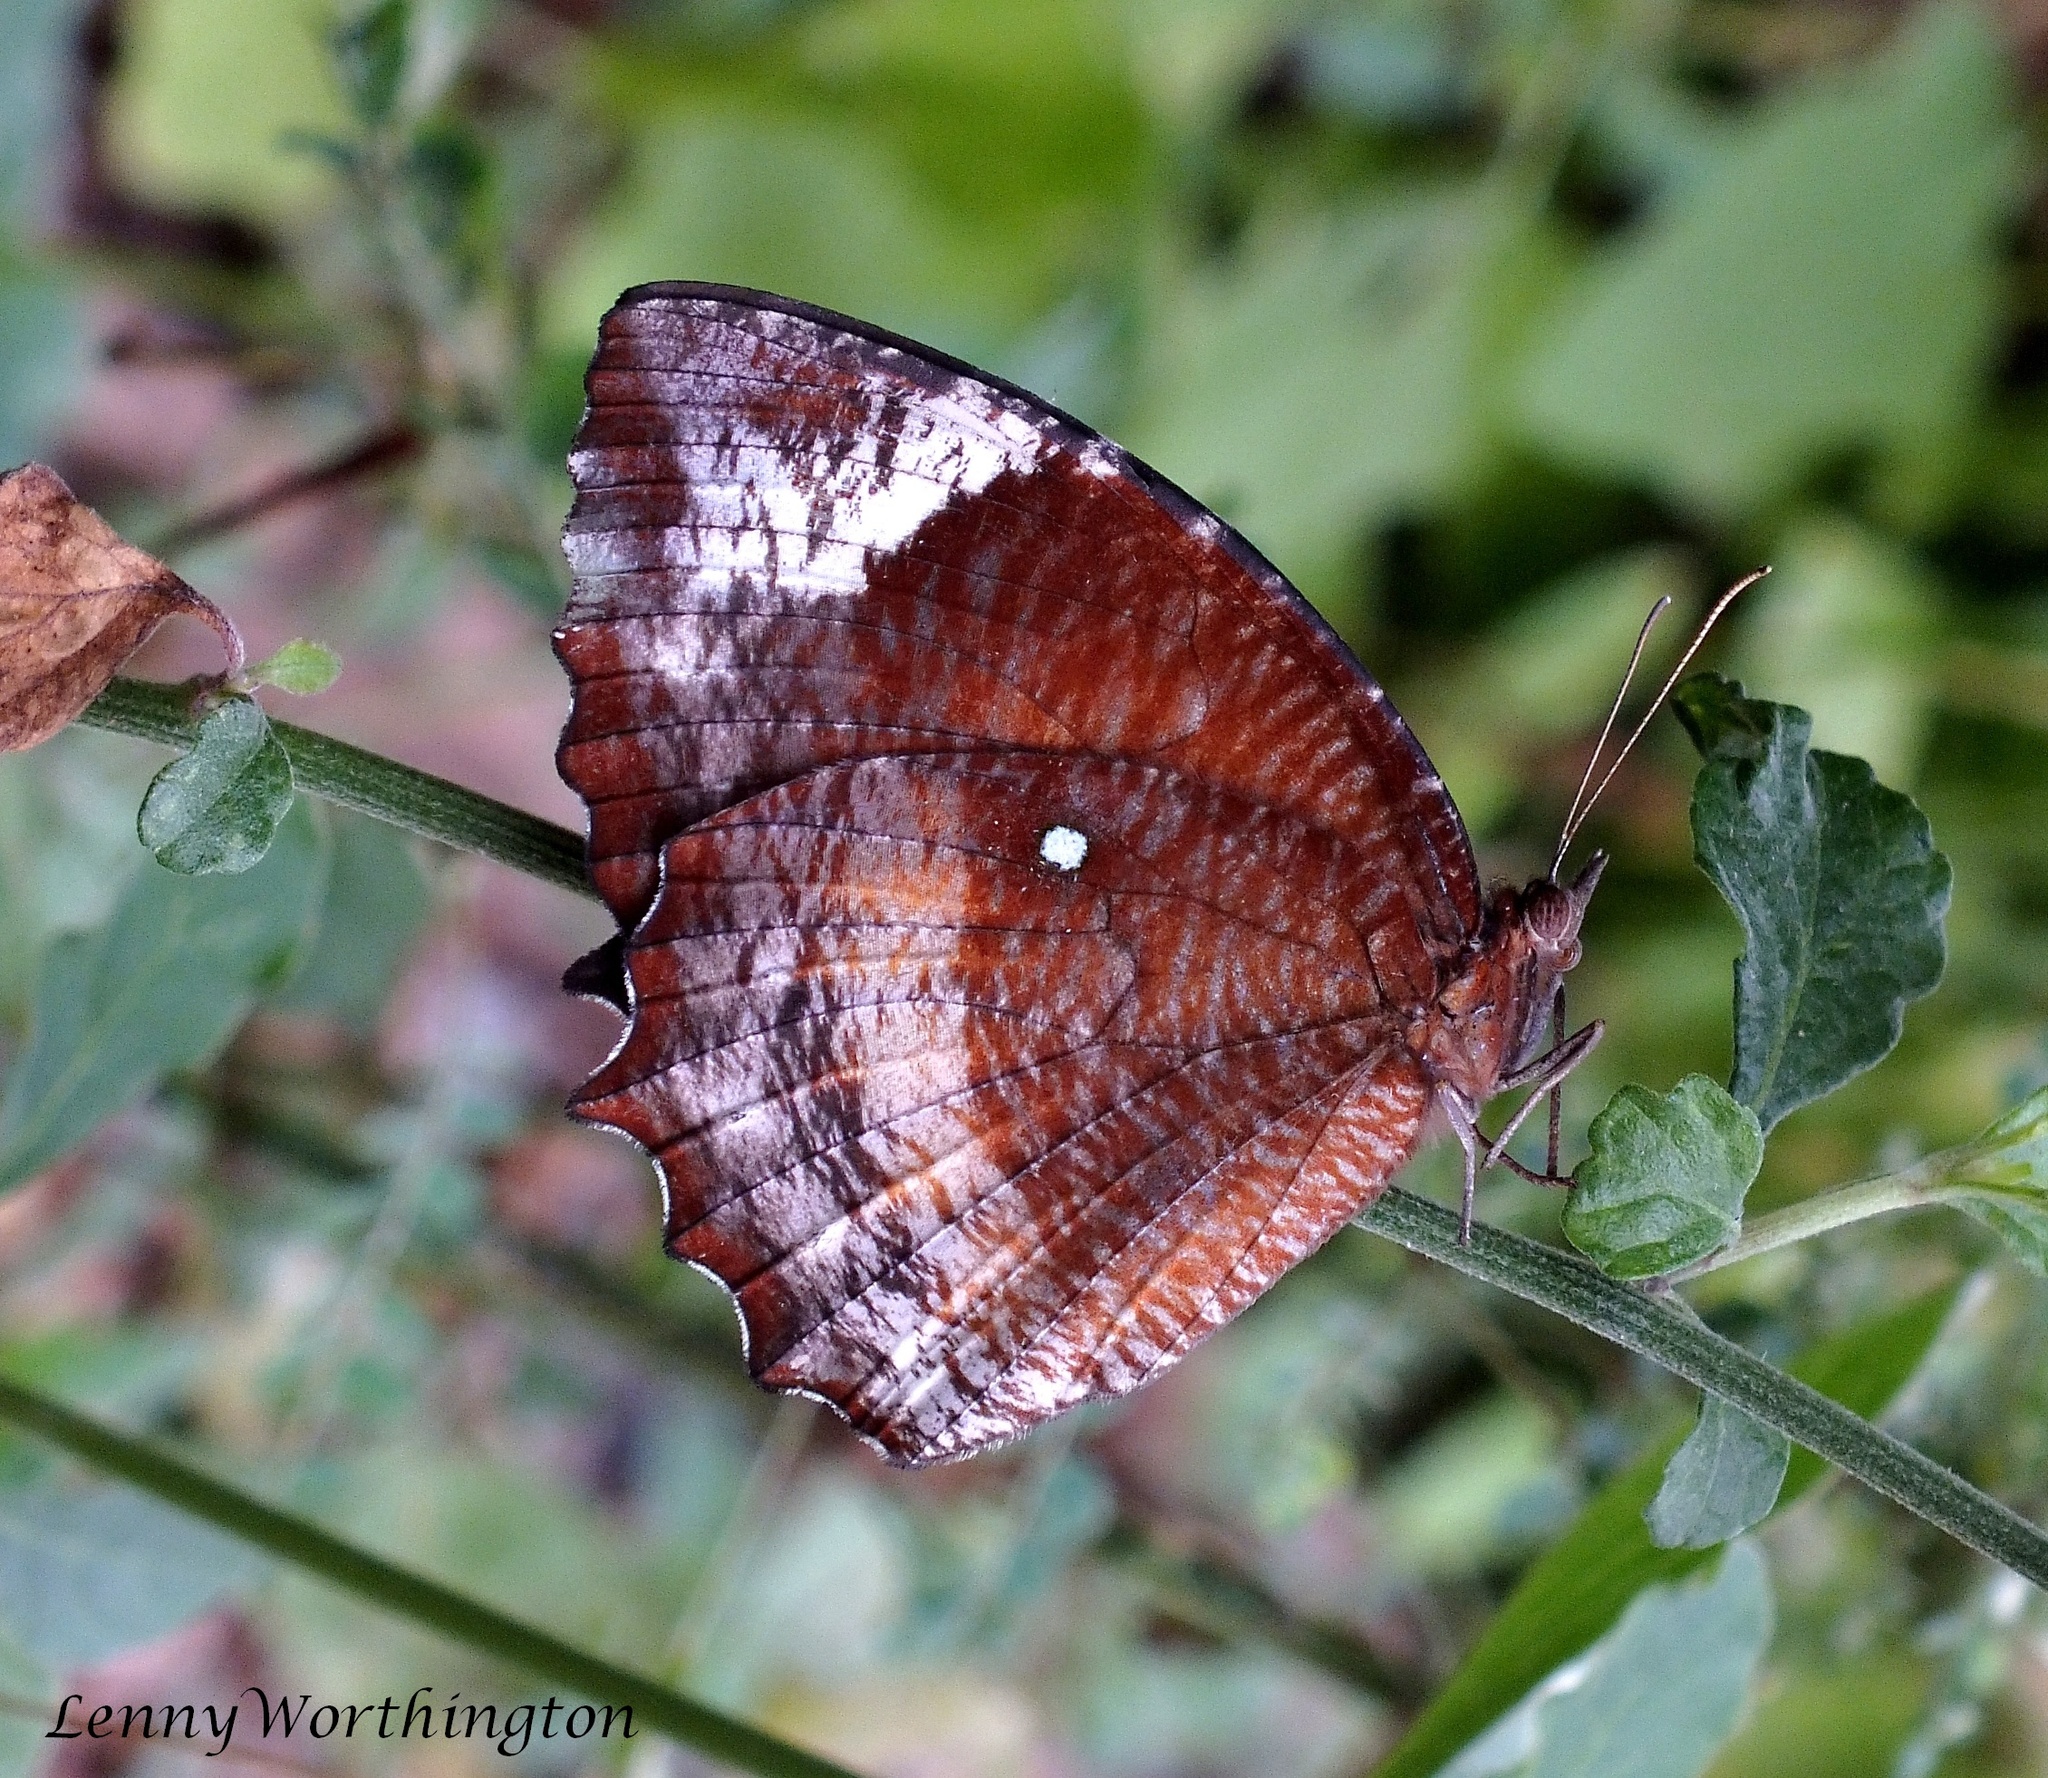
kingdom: Animalia
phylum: Arthropoda
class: Insecta
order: Lepidoptera
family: Nymphalidae
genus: Elymnias
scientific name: Elymnias hypermnestra
